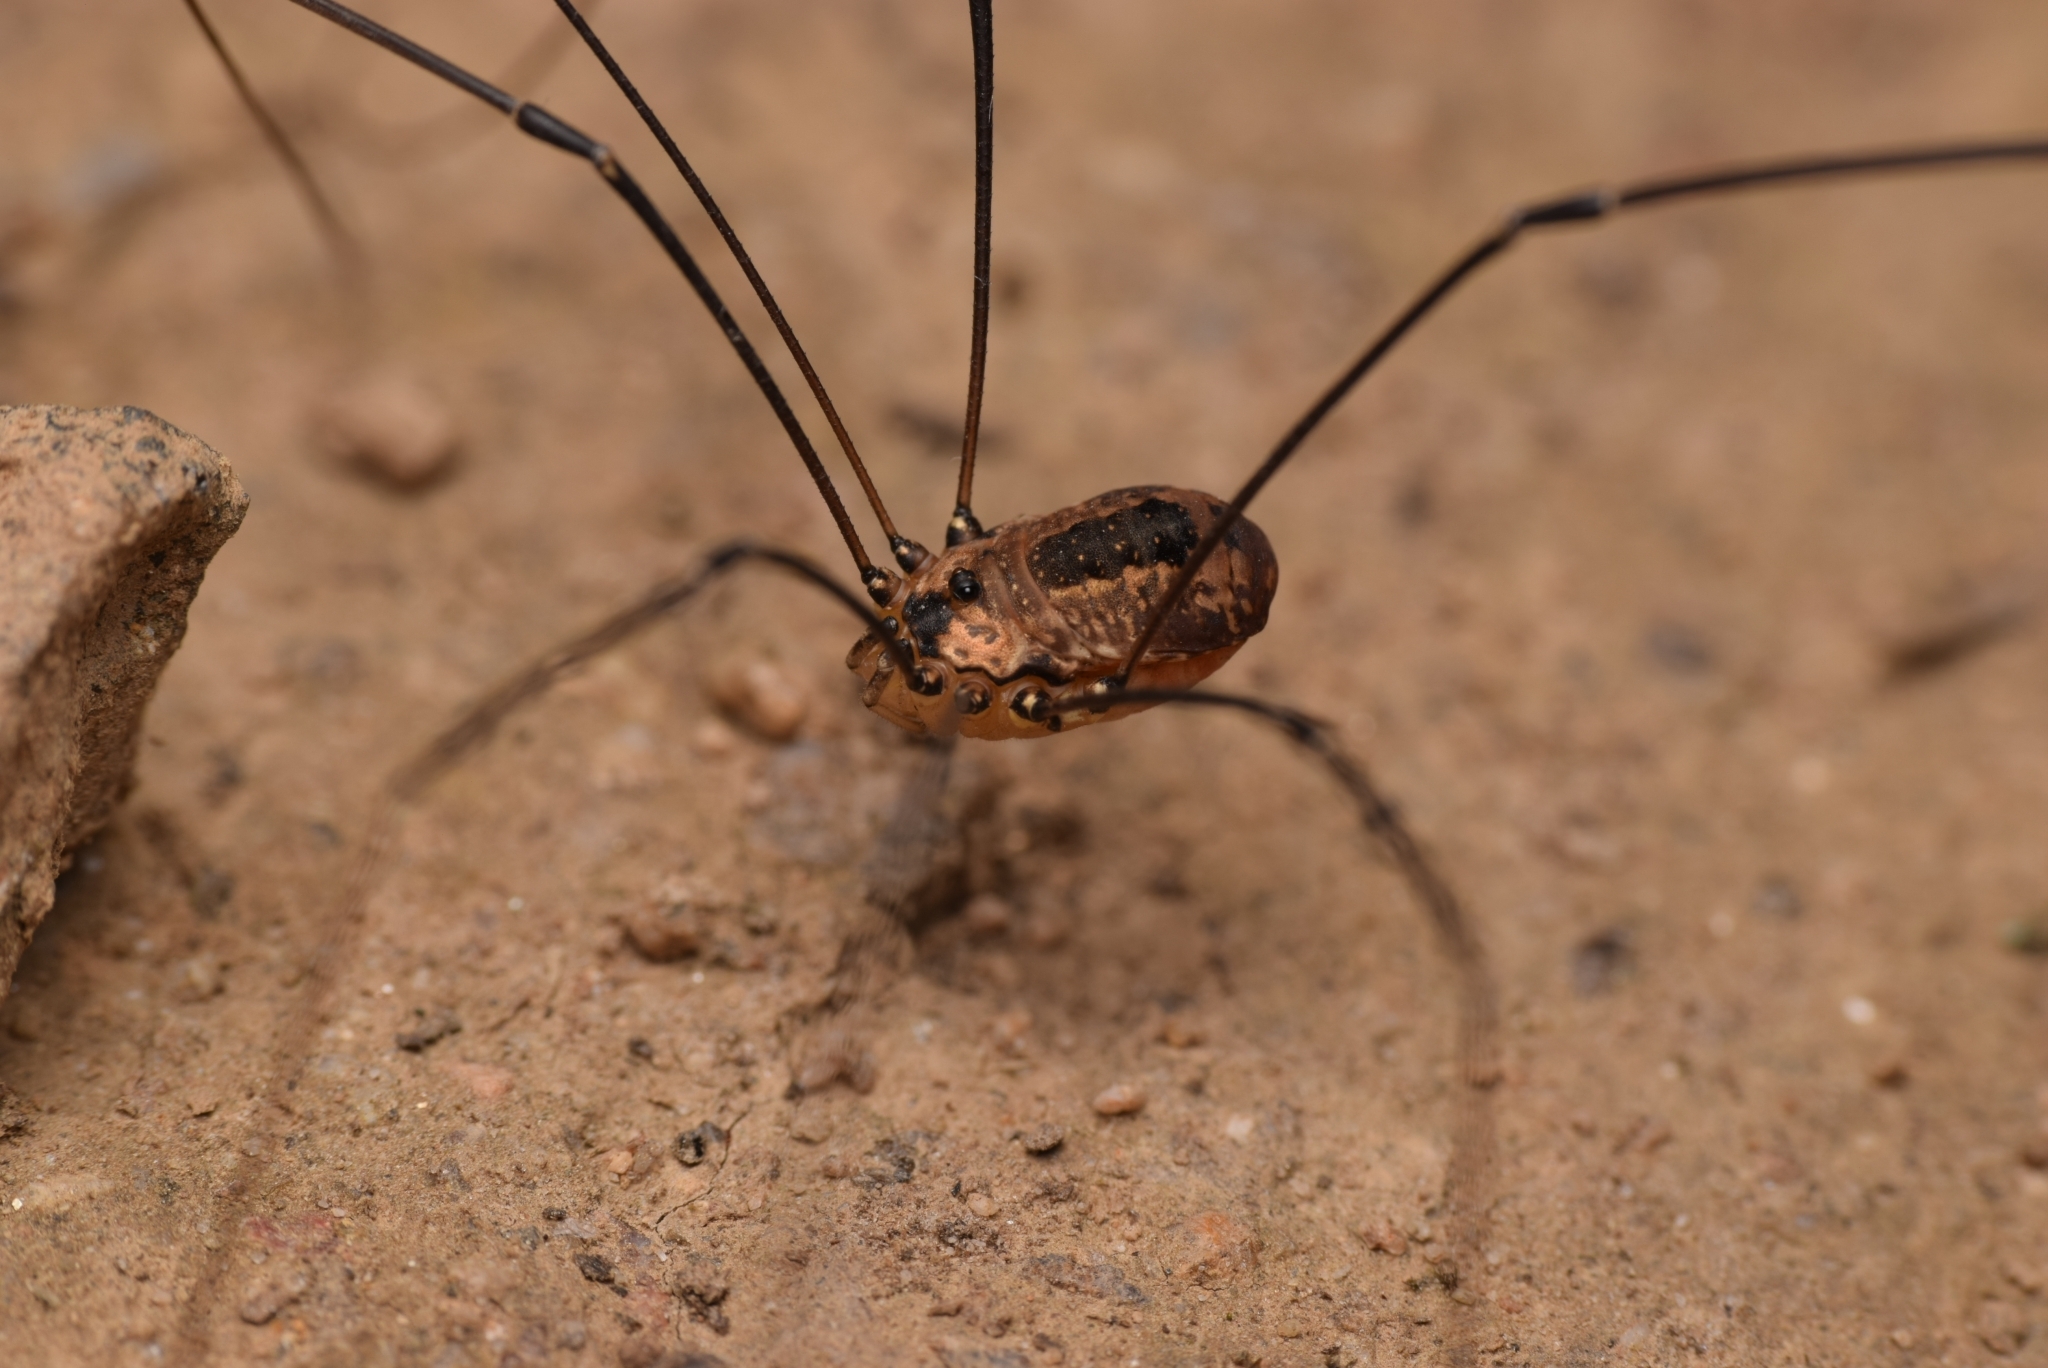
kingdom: Animalia
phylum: Arthropoda
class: Arachnida
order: Opiliones
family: Sclerosomatidae
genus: Leiobunum
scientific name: Leiobunum rotundum
